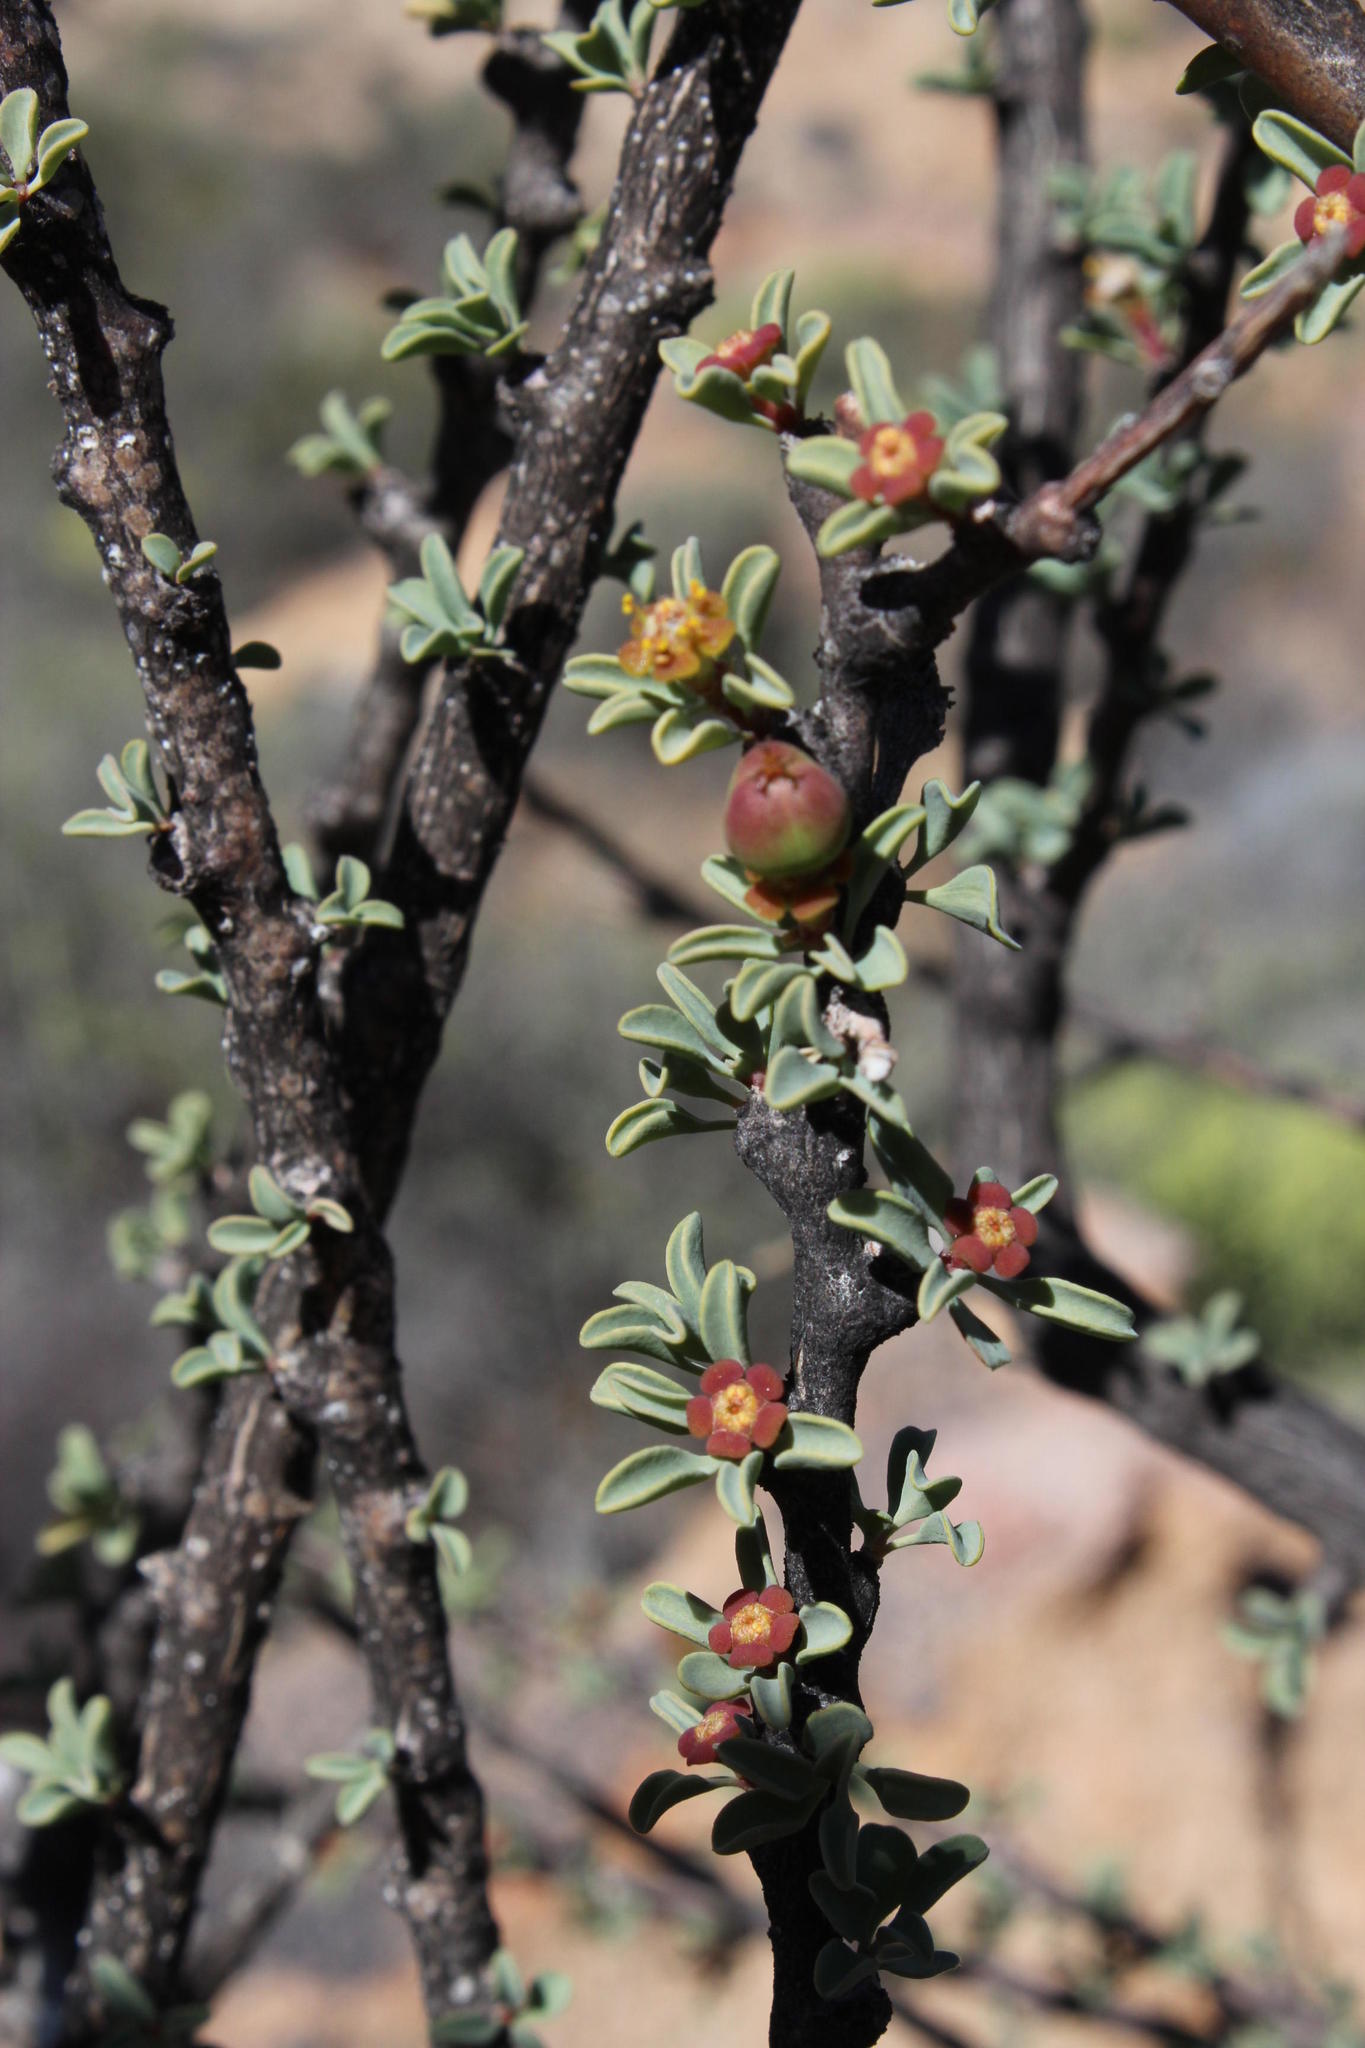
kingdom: Plantae
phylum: Tracheophyta
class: Magnoliopsida
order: Malpighiales
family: Euphorbiaceae
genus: Euphorbia
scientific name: Euphorbia guerichiana
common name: Paper-barked milkbush
